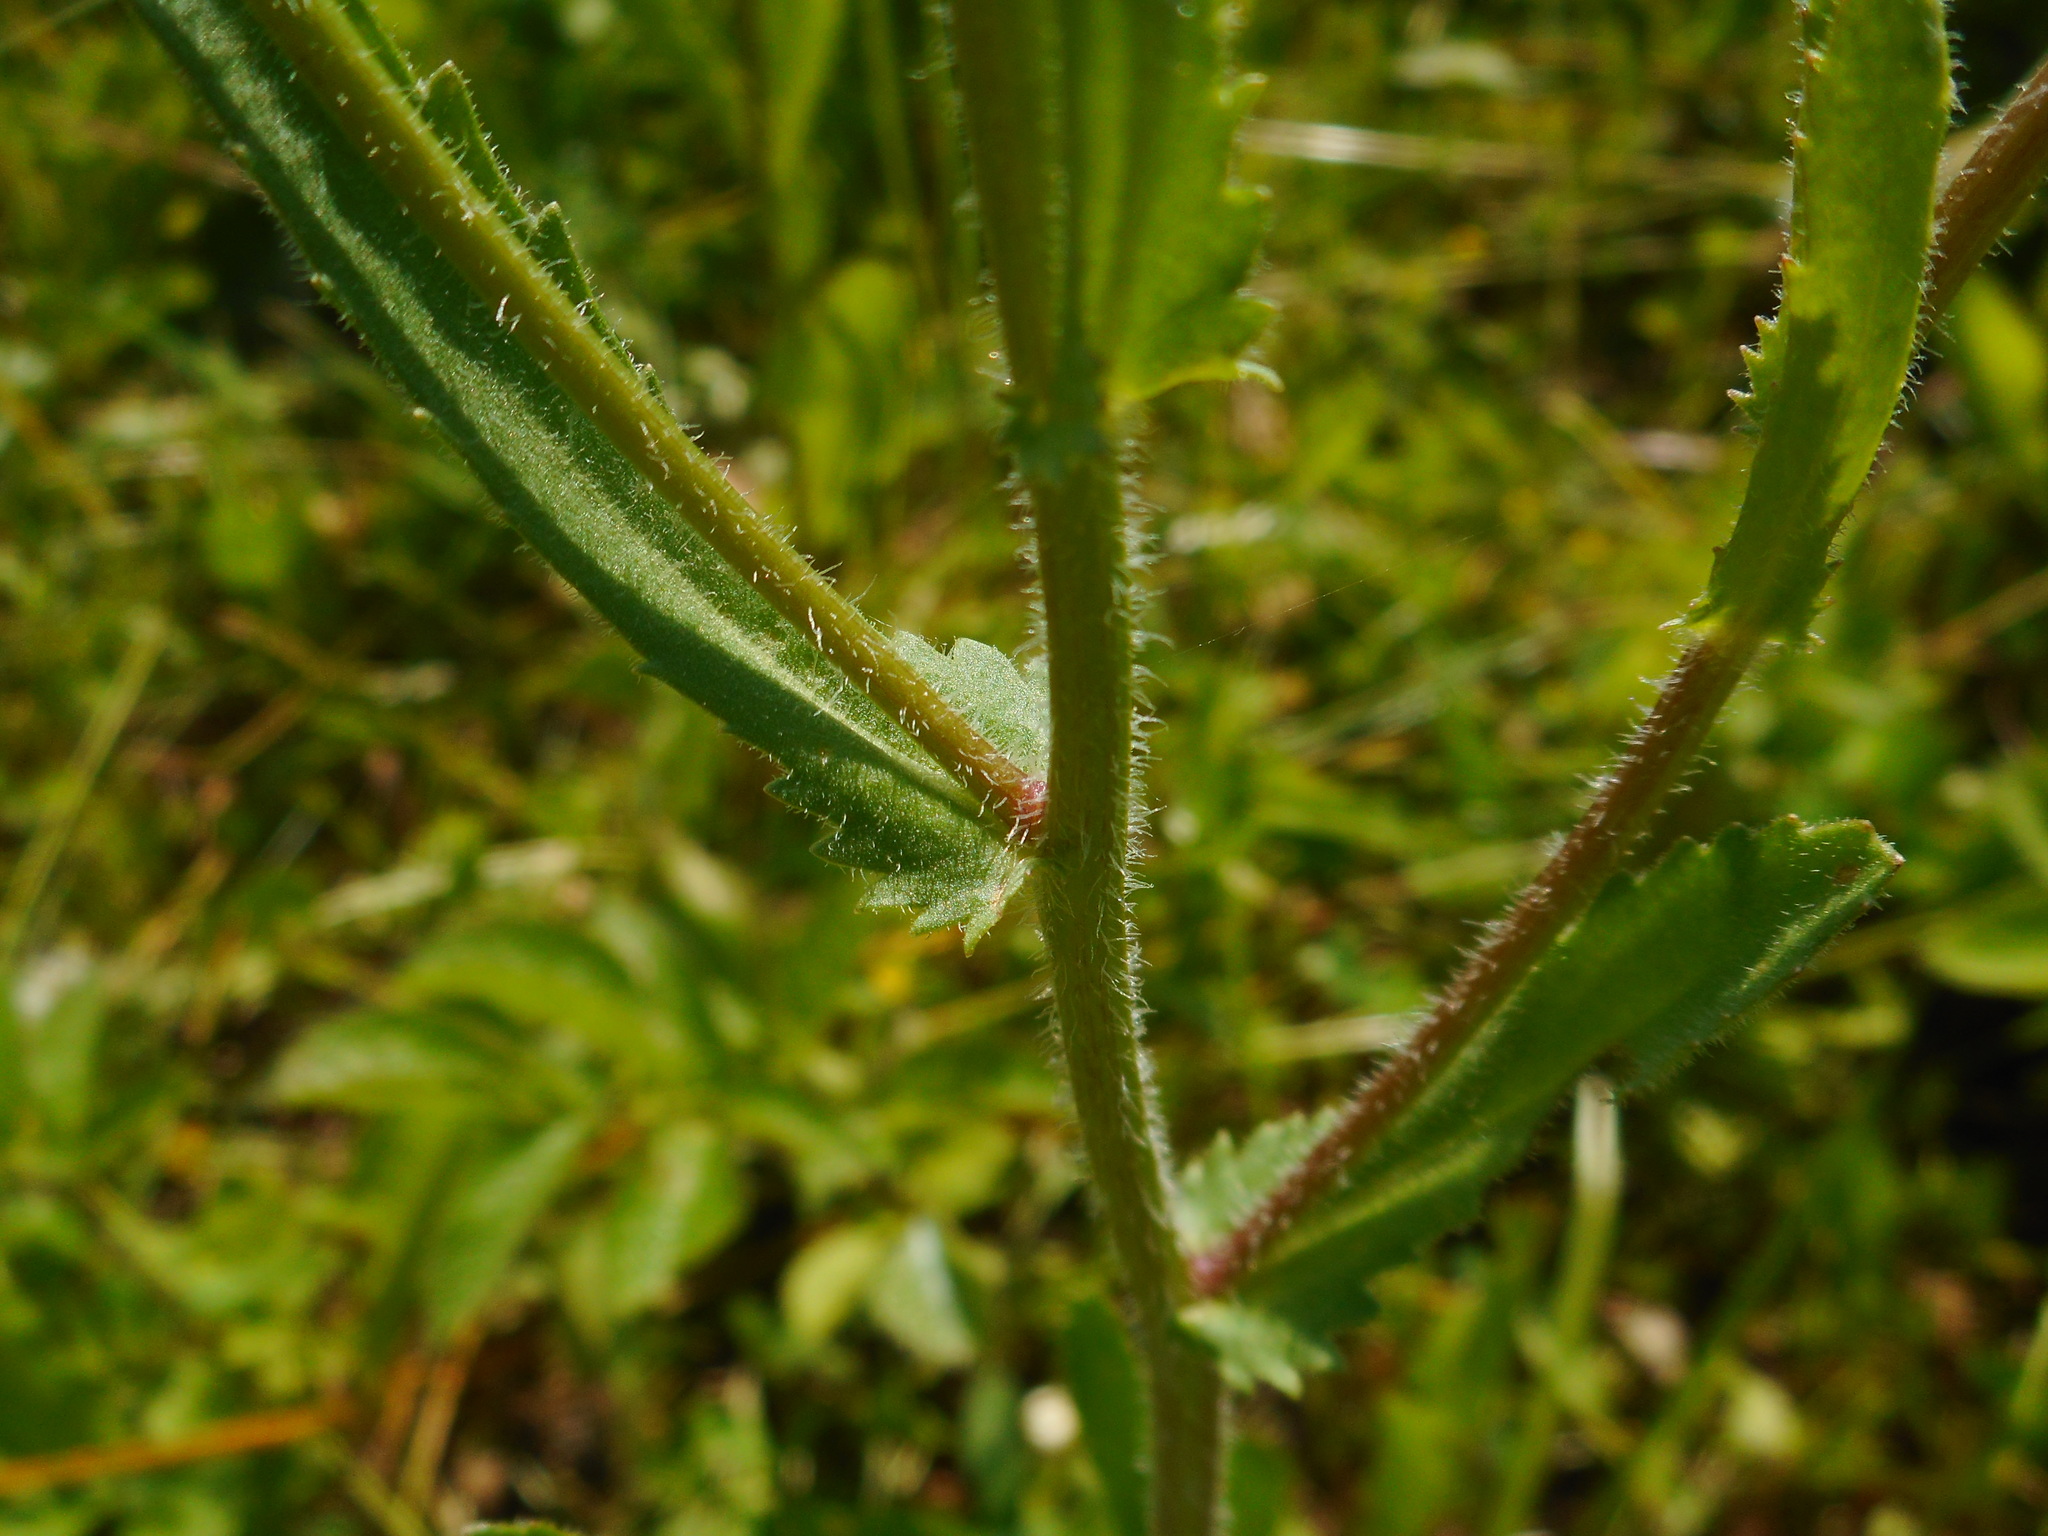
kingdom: Plantae
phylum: Tracheophyta
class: Magnoliopsida
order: Asterales
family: Asteraceae
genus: Leucanthemum
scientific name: Leucanthemum ircutianum
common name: Daisy
